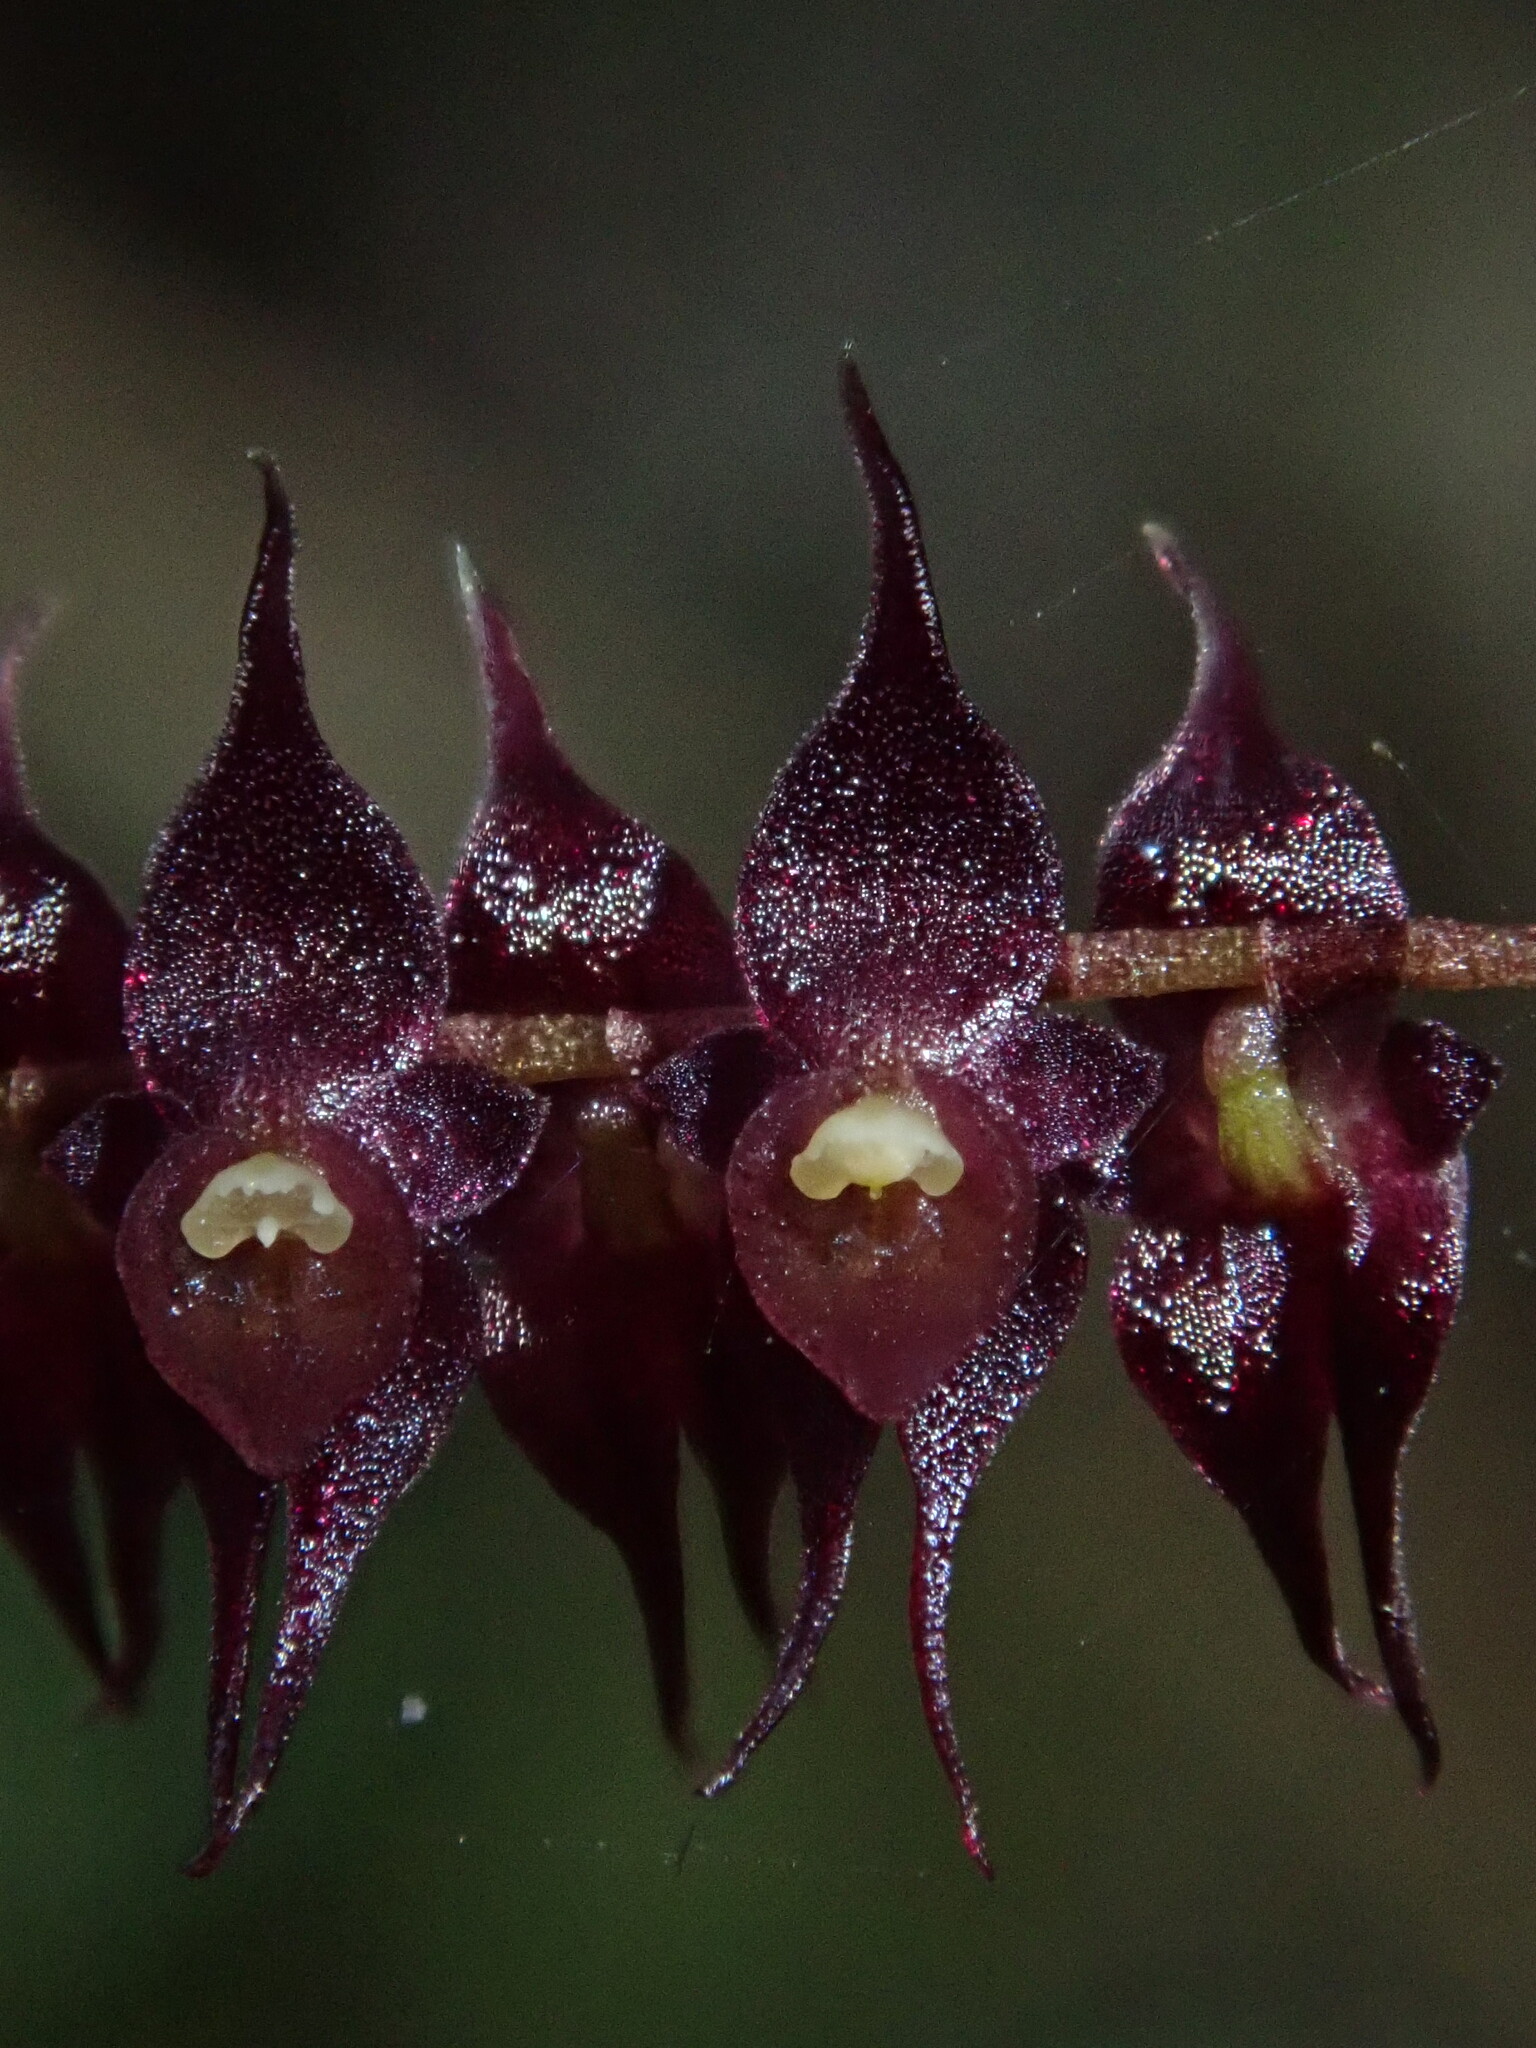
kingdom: Plantae
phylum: Tracheophyta
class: Liliopsida
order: Asparagales
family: Orchidaceae
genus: Lepanthopsis
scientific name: Lepanthopsis acetabulum
